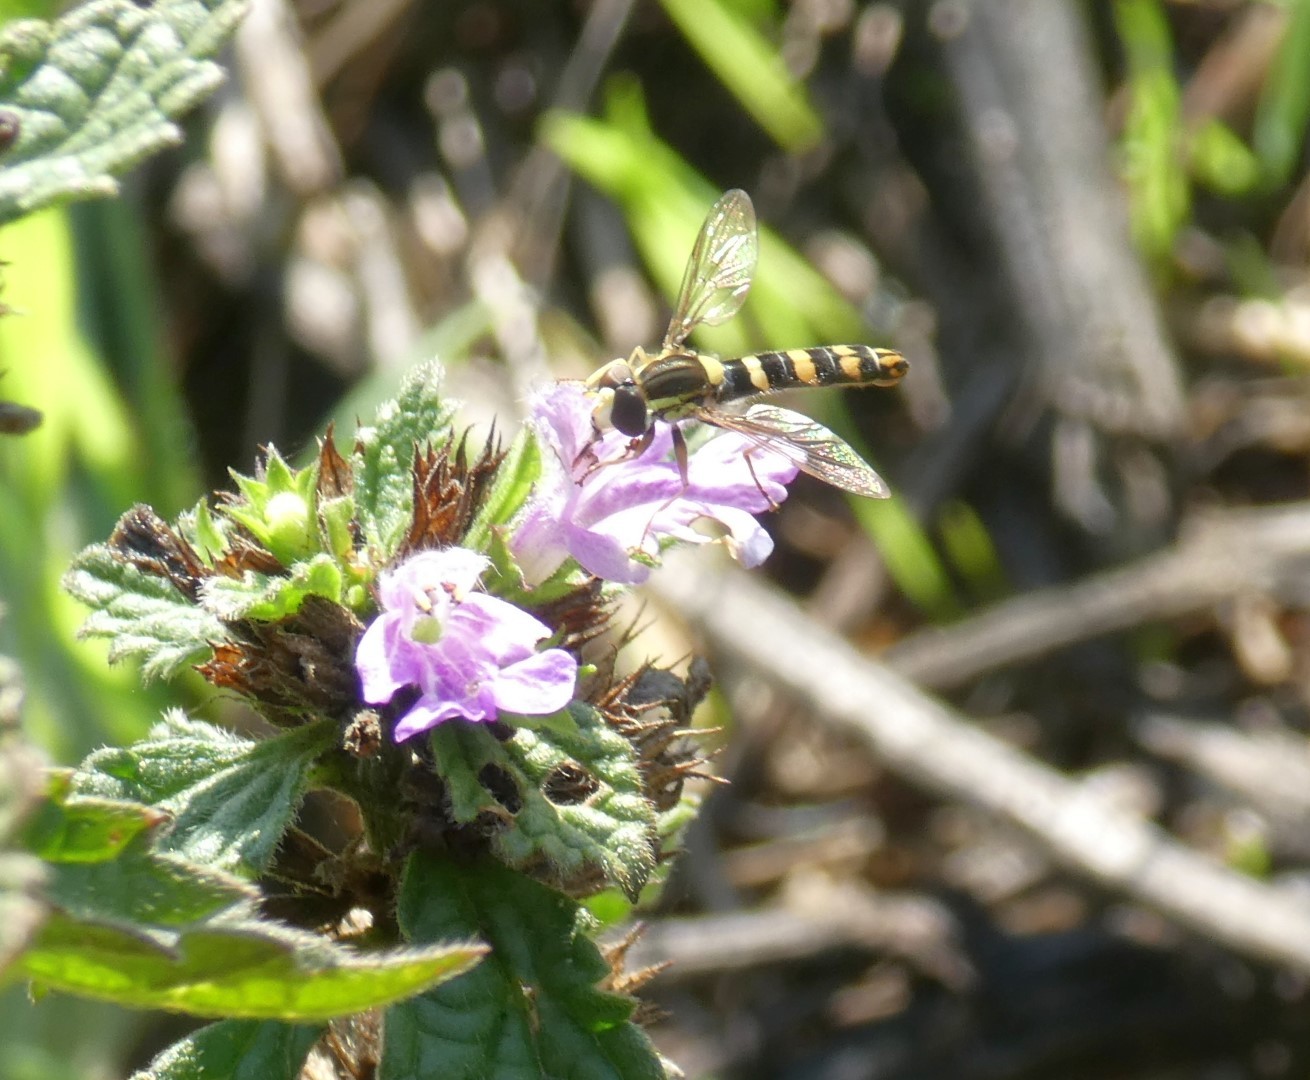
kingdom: Animalia
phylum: Arthropoda
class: Insecta
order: Diptera
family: Syrphidae
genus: Sphaerophoria
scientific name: Sphaerophoria scripta
